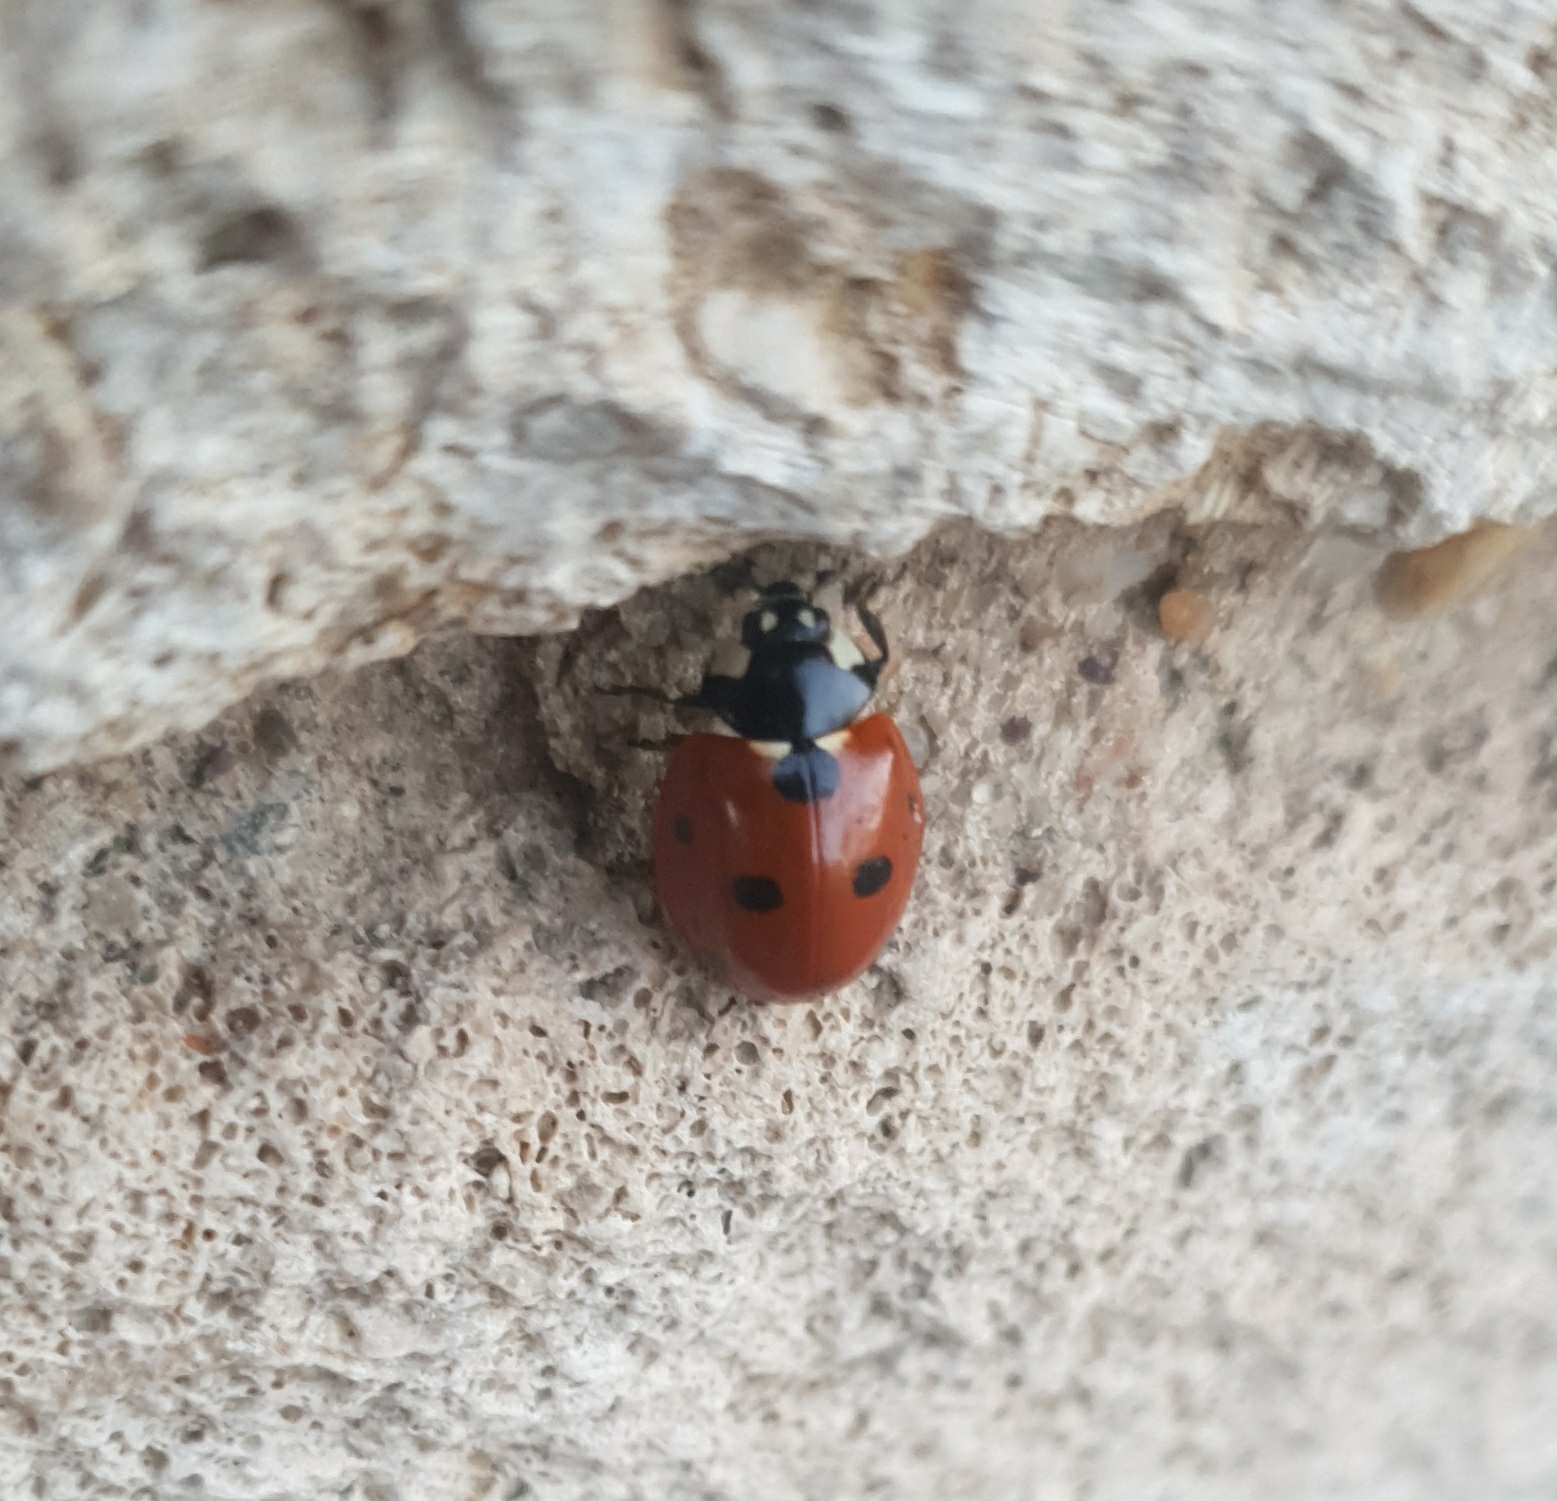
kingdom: Animalia
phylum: Arthropoda
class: Insecta
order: Coleoptera
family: Coccinellidae
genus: Coccinella
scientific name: Coccinella septempunctata
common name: Sevenspotted lady beetle
